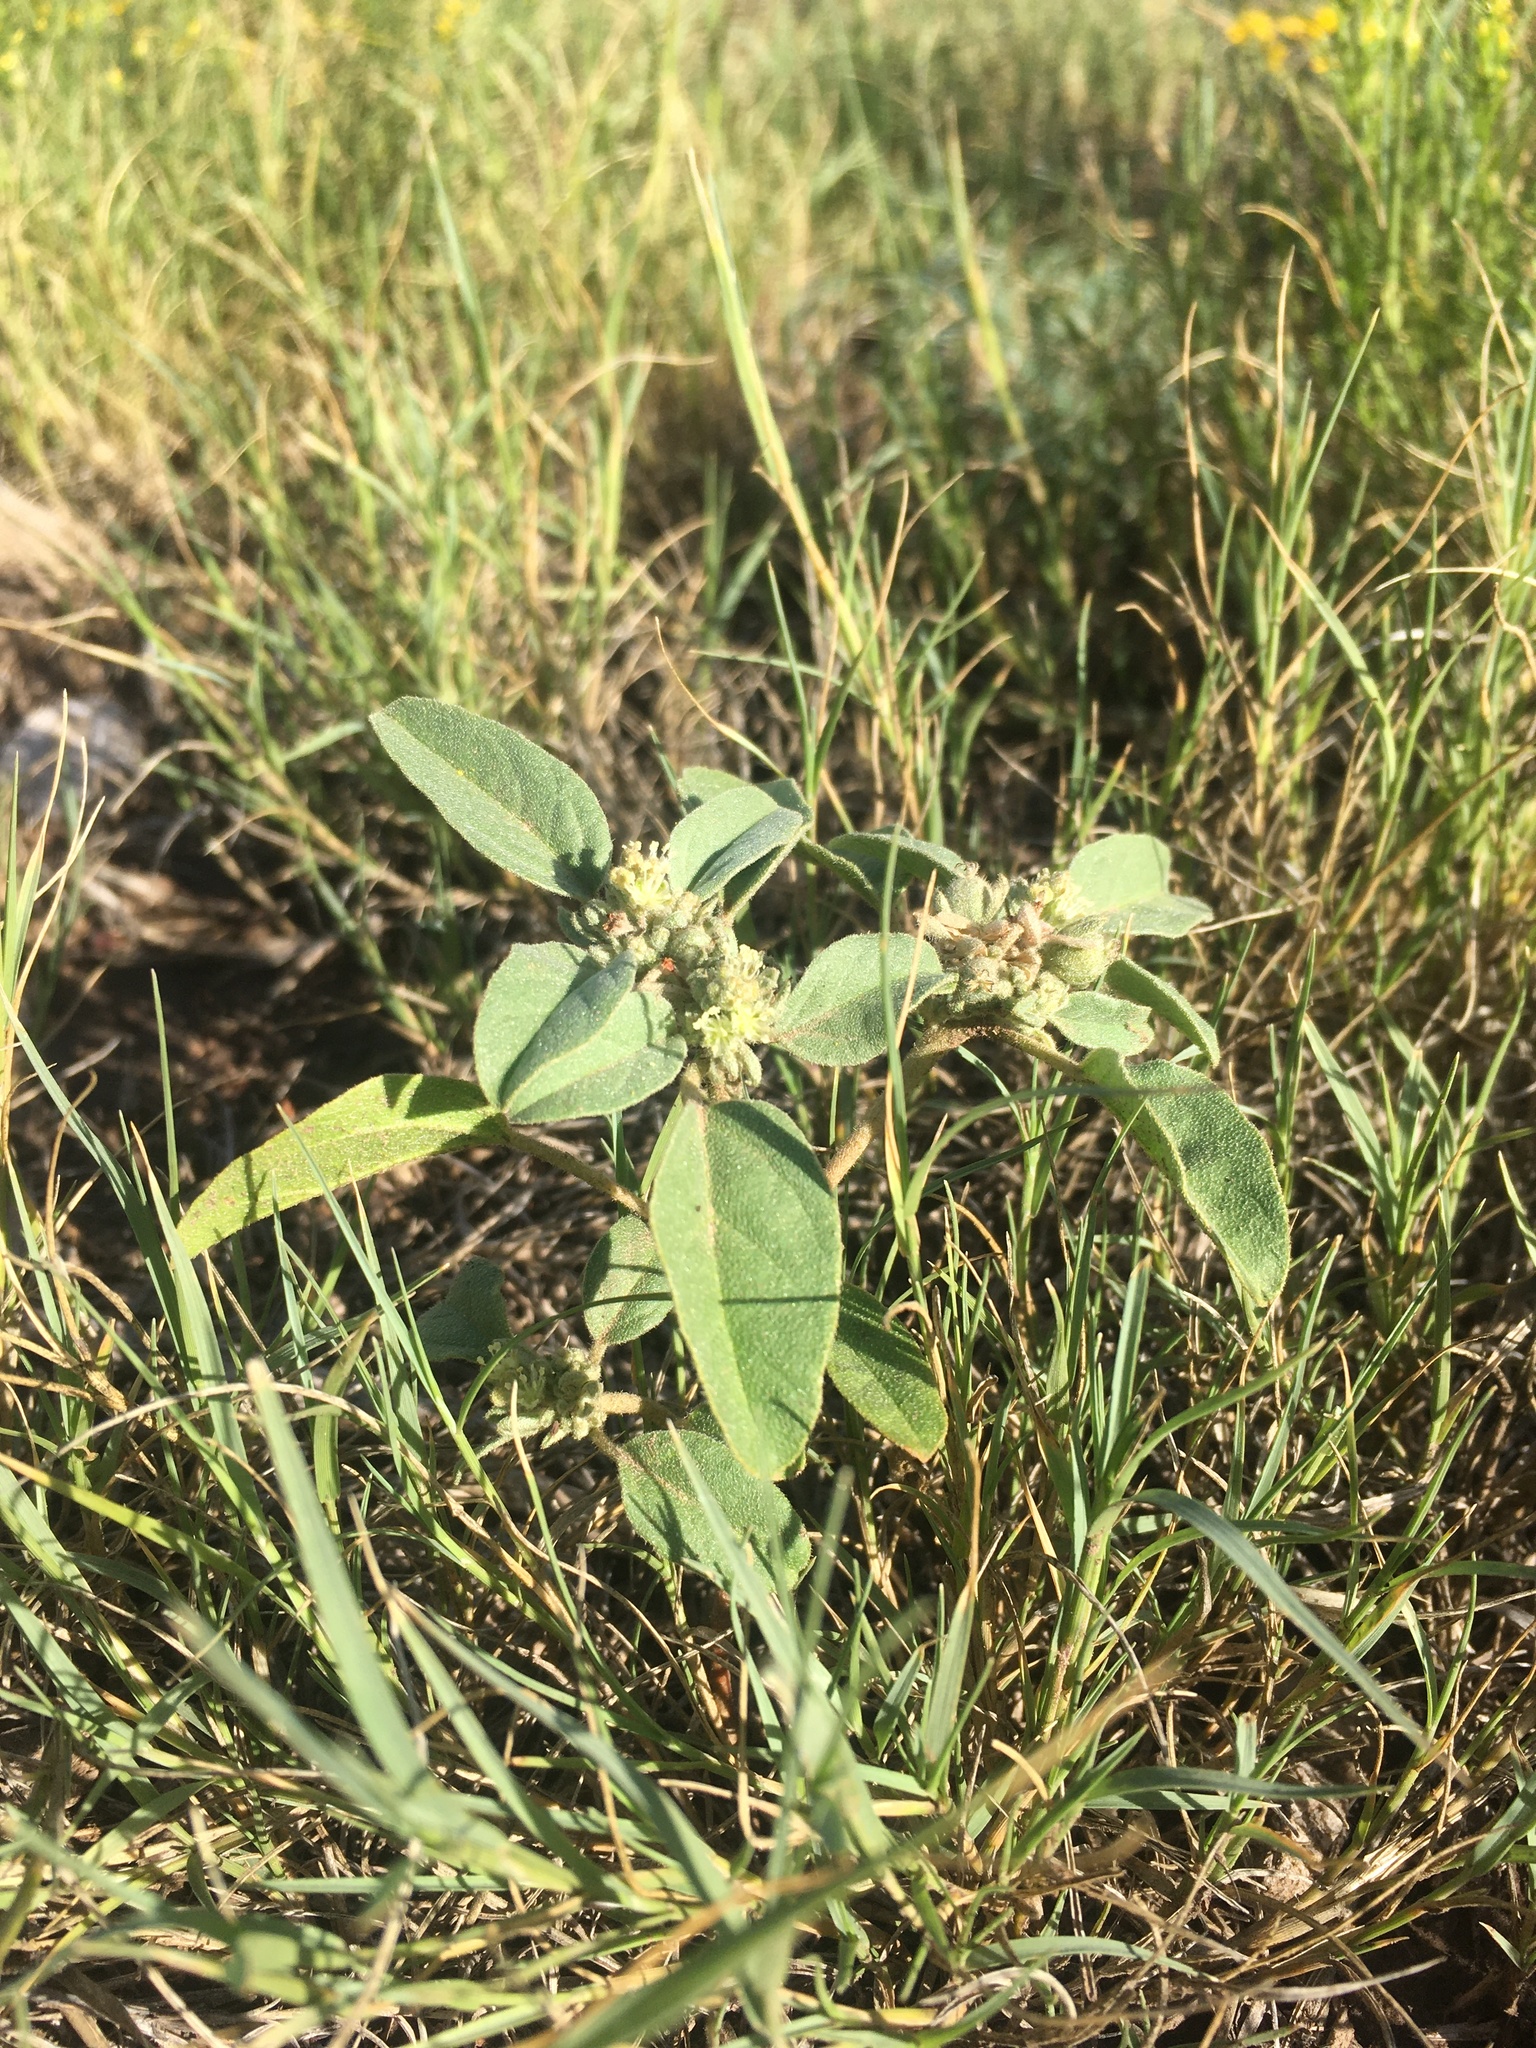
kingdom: Plantae
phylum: Tracheophyta
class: Magnoliopsida
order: Malpighiales
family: Euphorbiaceae
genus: Croton
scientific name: Croton pottsii
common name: Leatherweed
